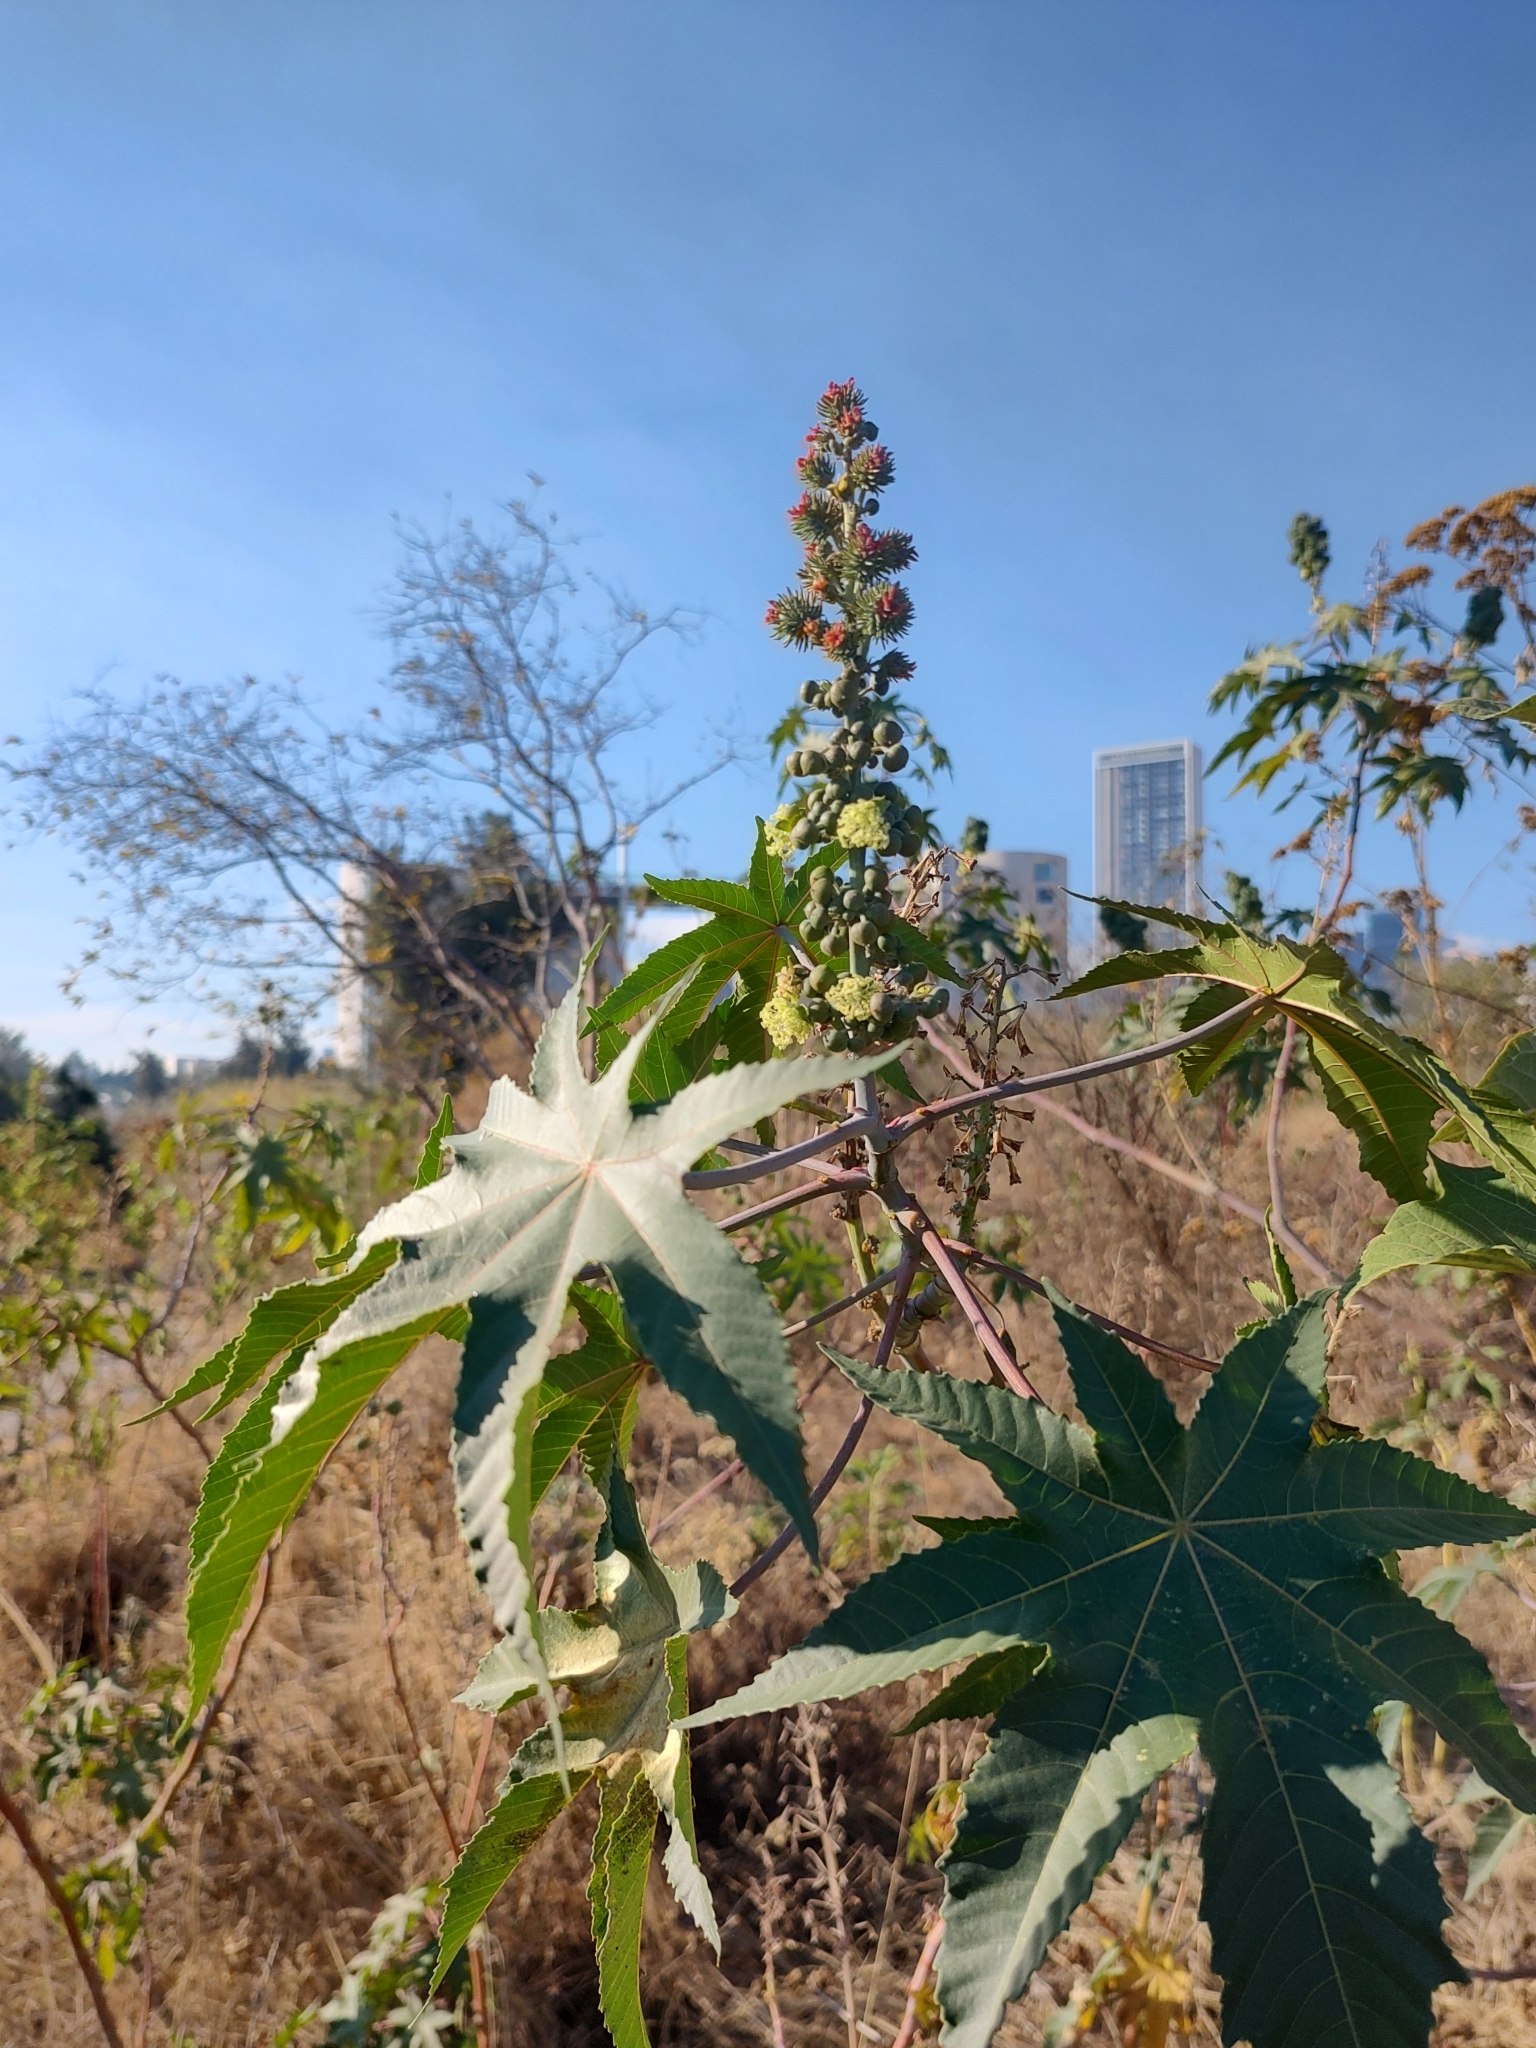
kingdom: Plantae
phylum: Tracheophyta
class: Magnoliopsida
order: Malpighiales
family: Euphorbiaceae
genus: Ricinus
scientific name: Ricinus communis
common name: Castor-oil-plant
